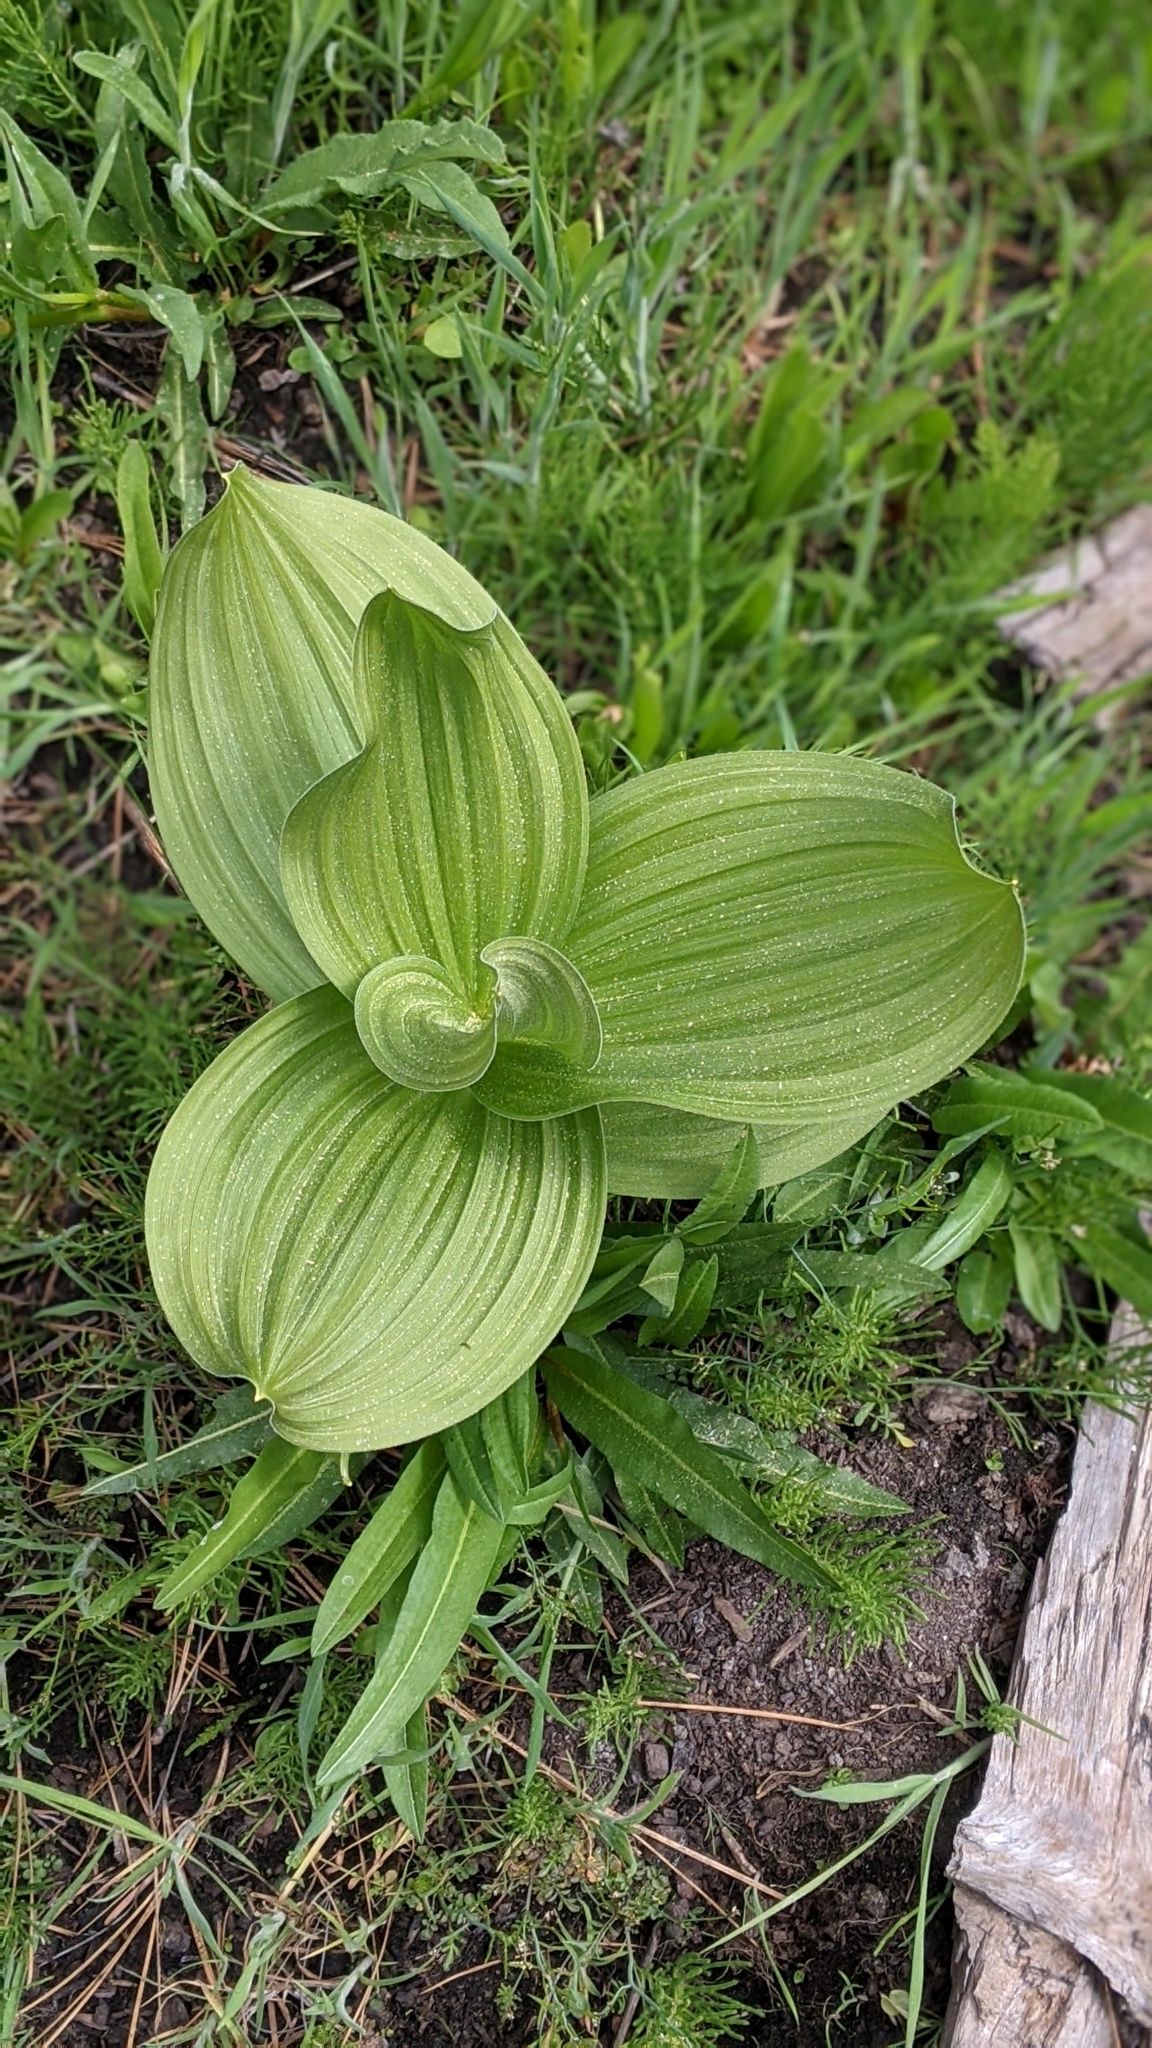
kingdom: Plantae
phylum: Tracheophyta
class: Liliopsida
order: Liliales
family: Melanthiaceae
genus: Veratrum
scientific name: Veratrum californicum
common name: California veratrum
